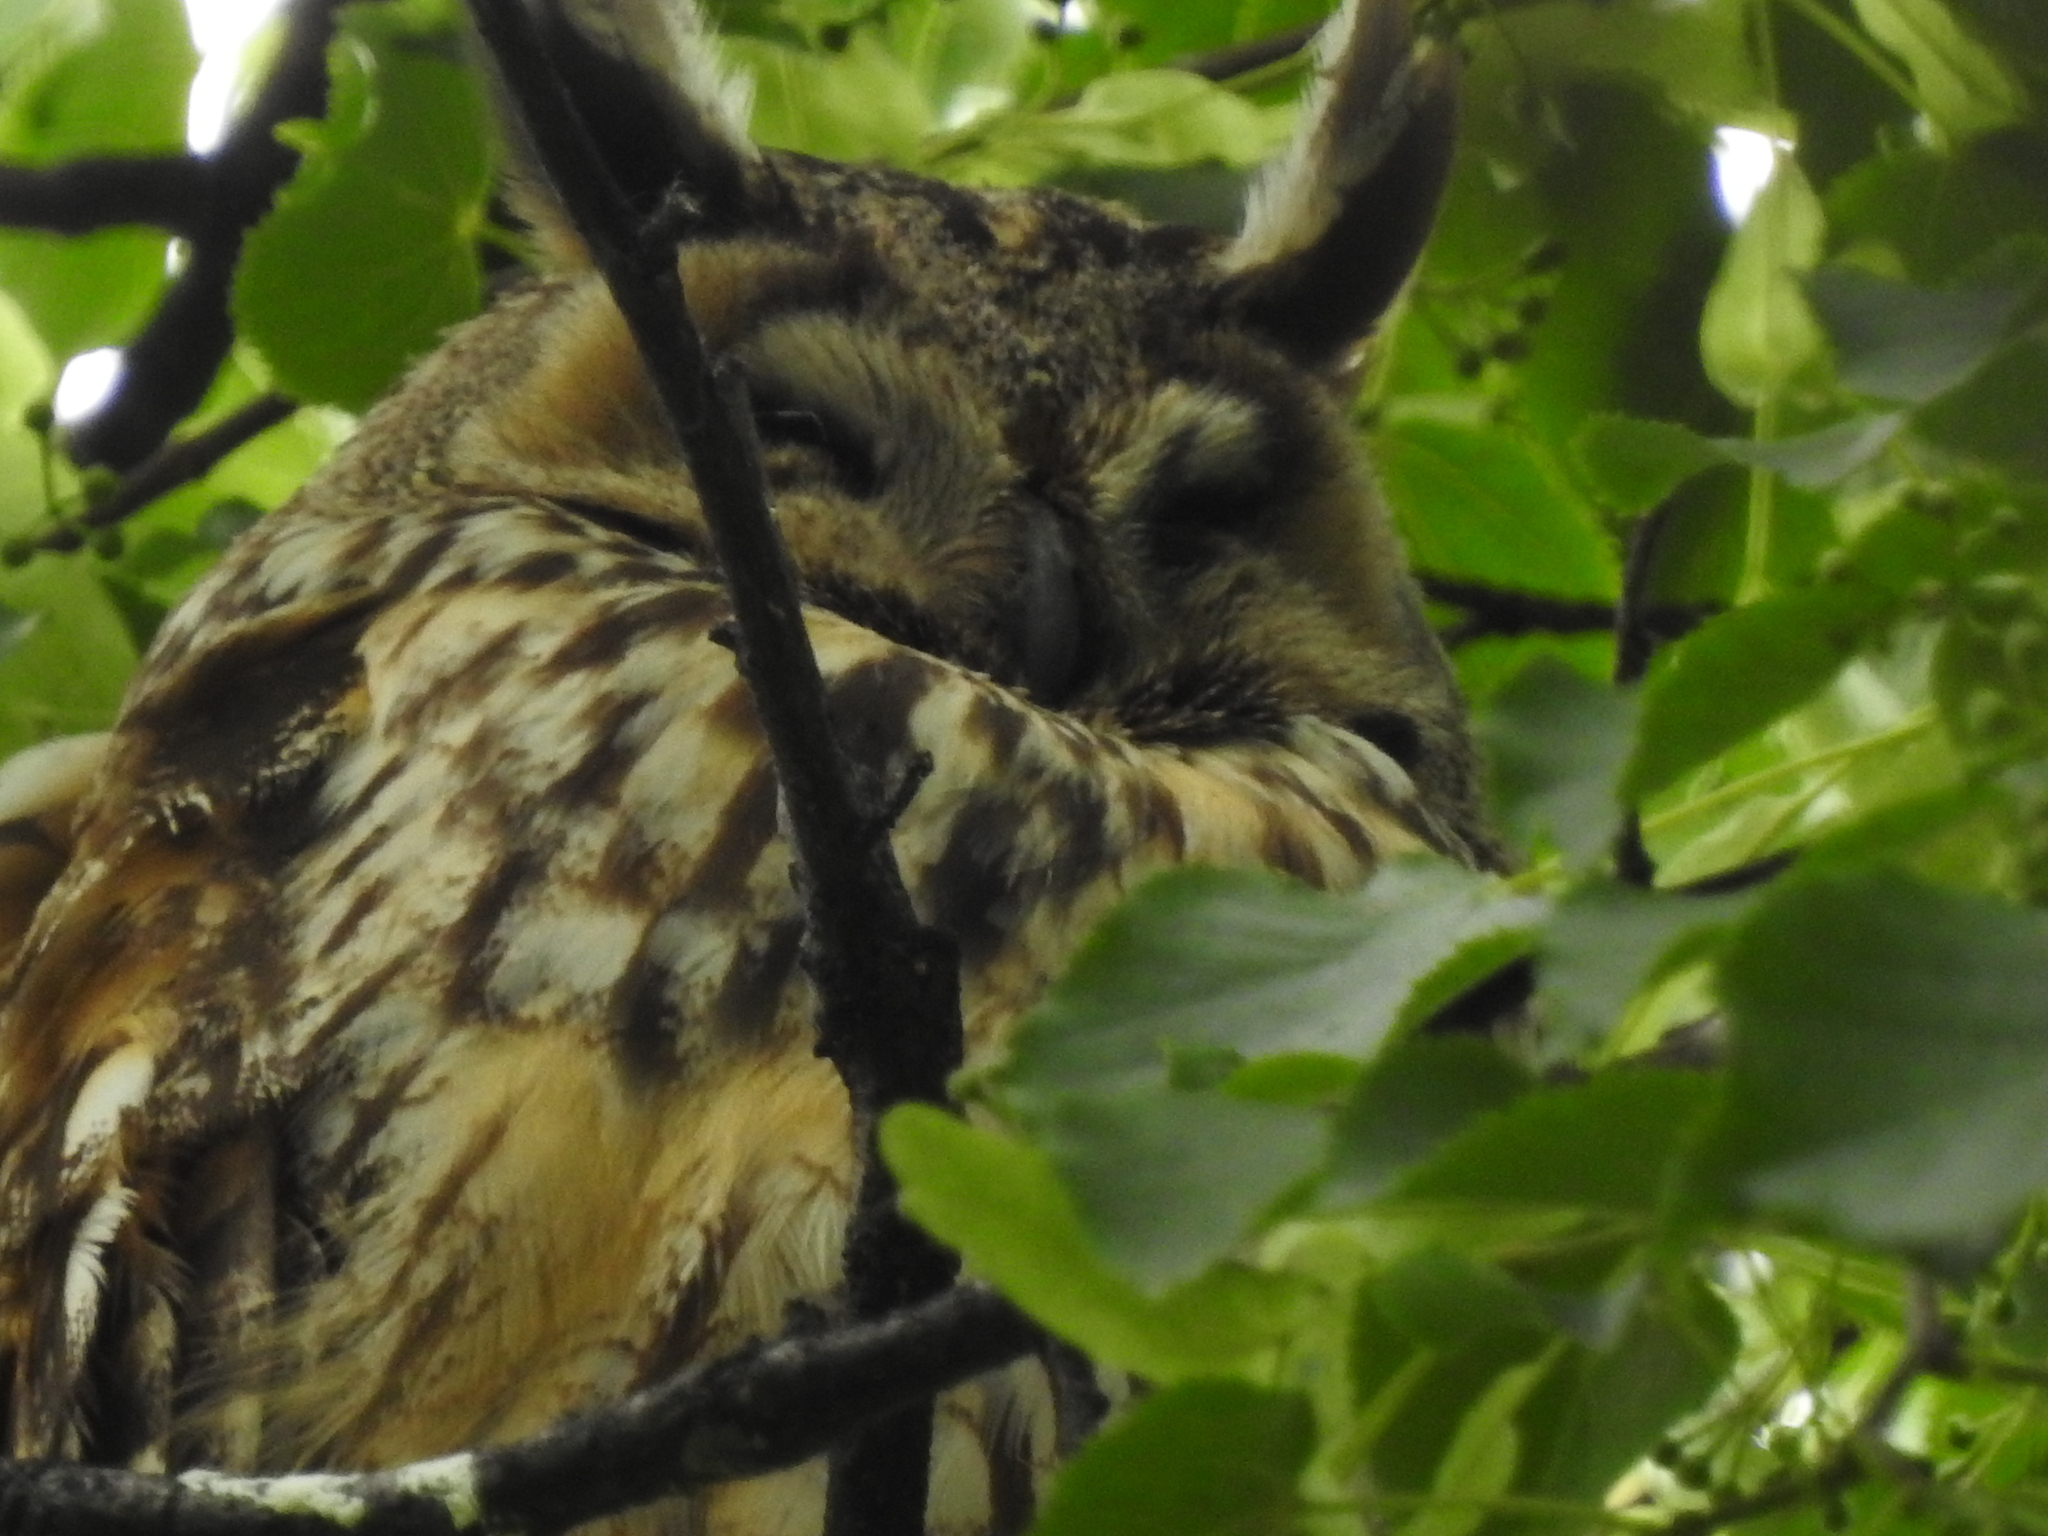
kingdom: Animalia
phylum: Chordata
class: Aves
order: Strigiformes
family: Strigidae
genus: Asio
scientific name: Asio otus
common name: Long-eared owl
